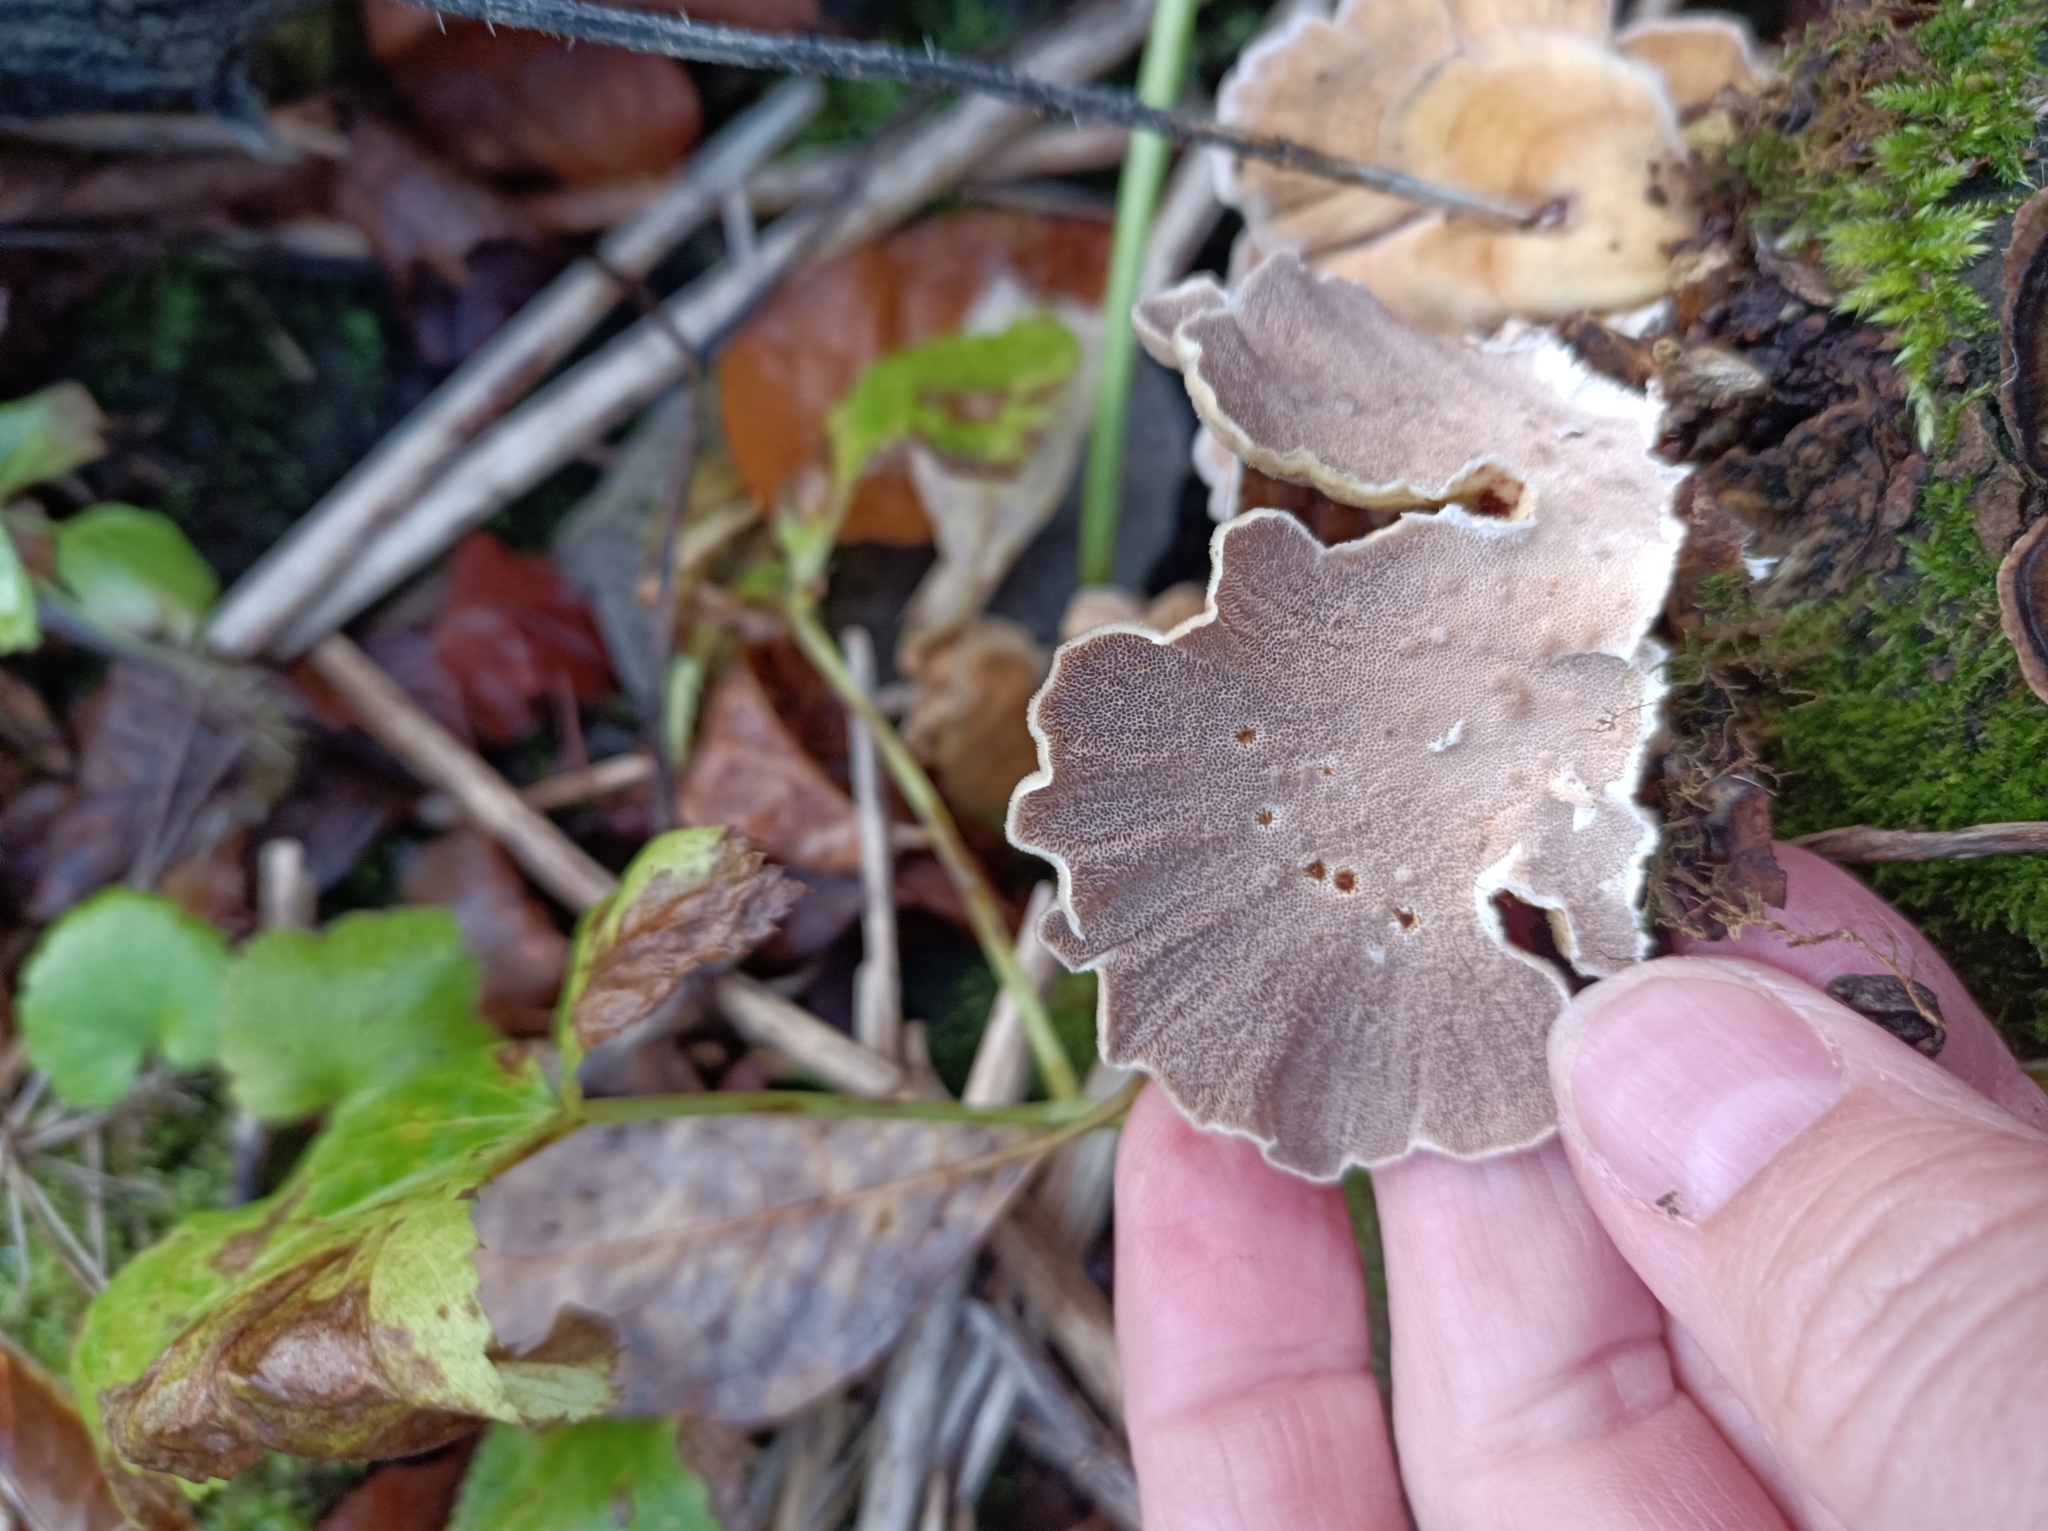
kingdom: Fungi
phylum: Basidiomycota
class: Agaricomycetes
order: Hymenochaetales
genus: Trichaptum
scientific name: Trichaptum biforme
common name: Violet-toothed polypore
